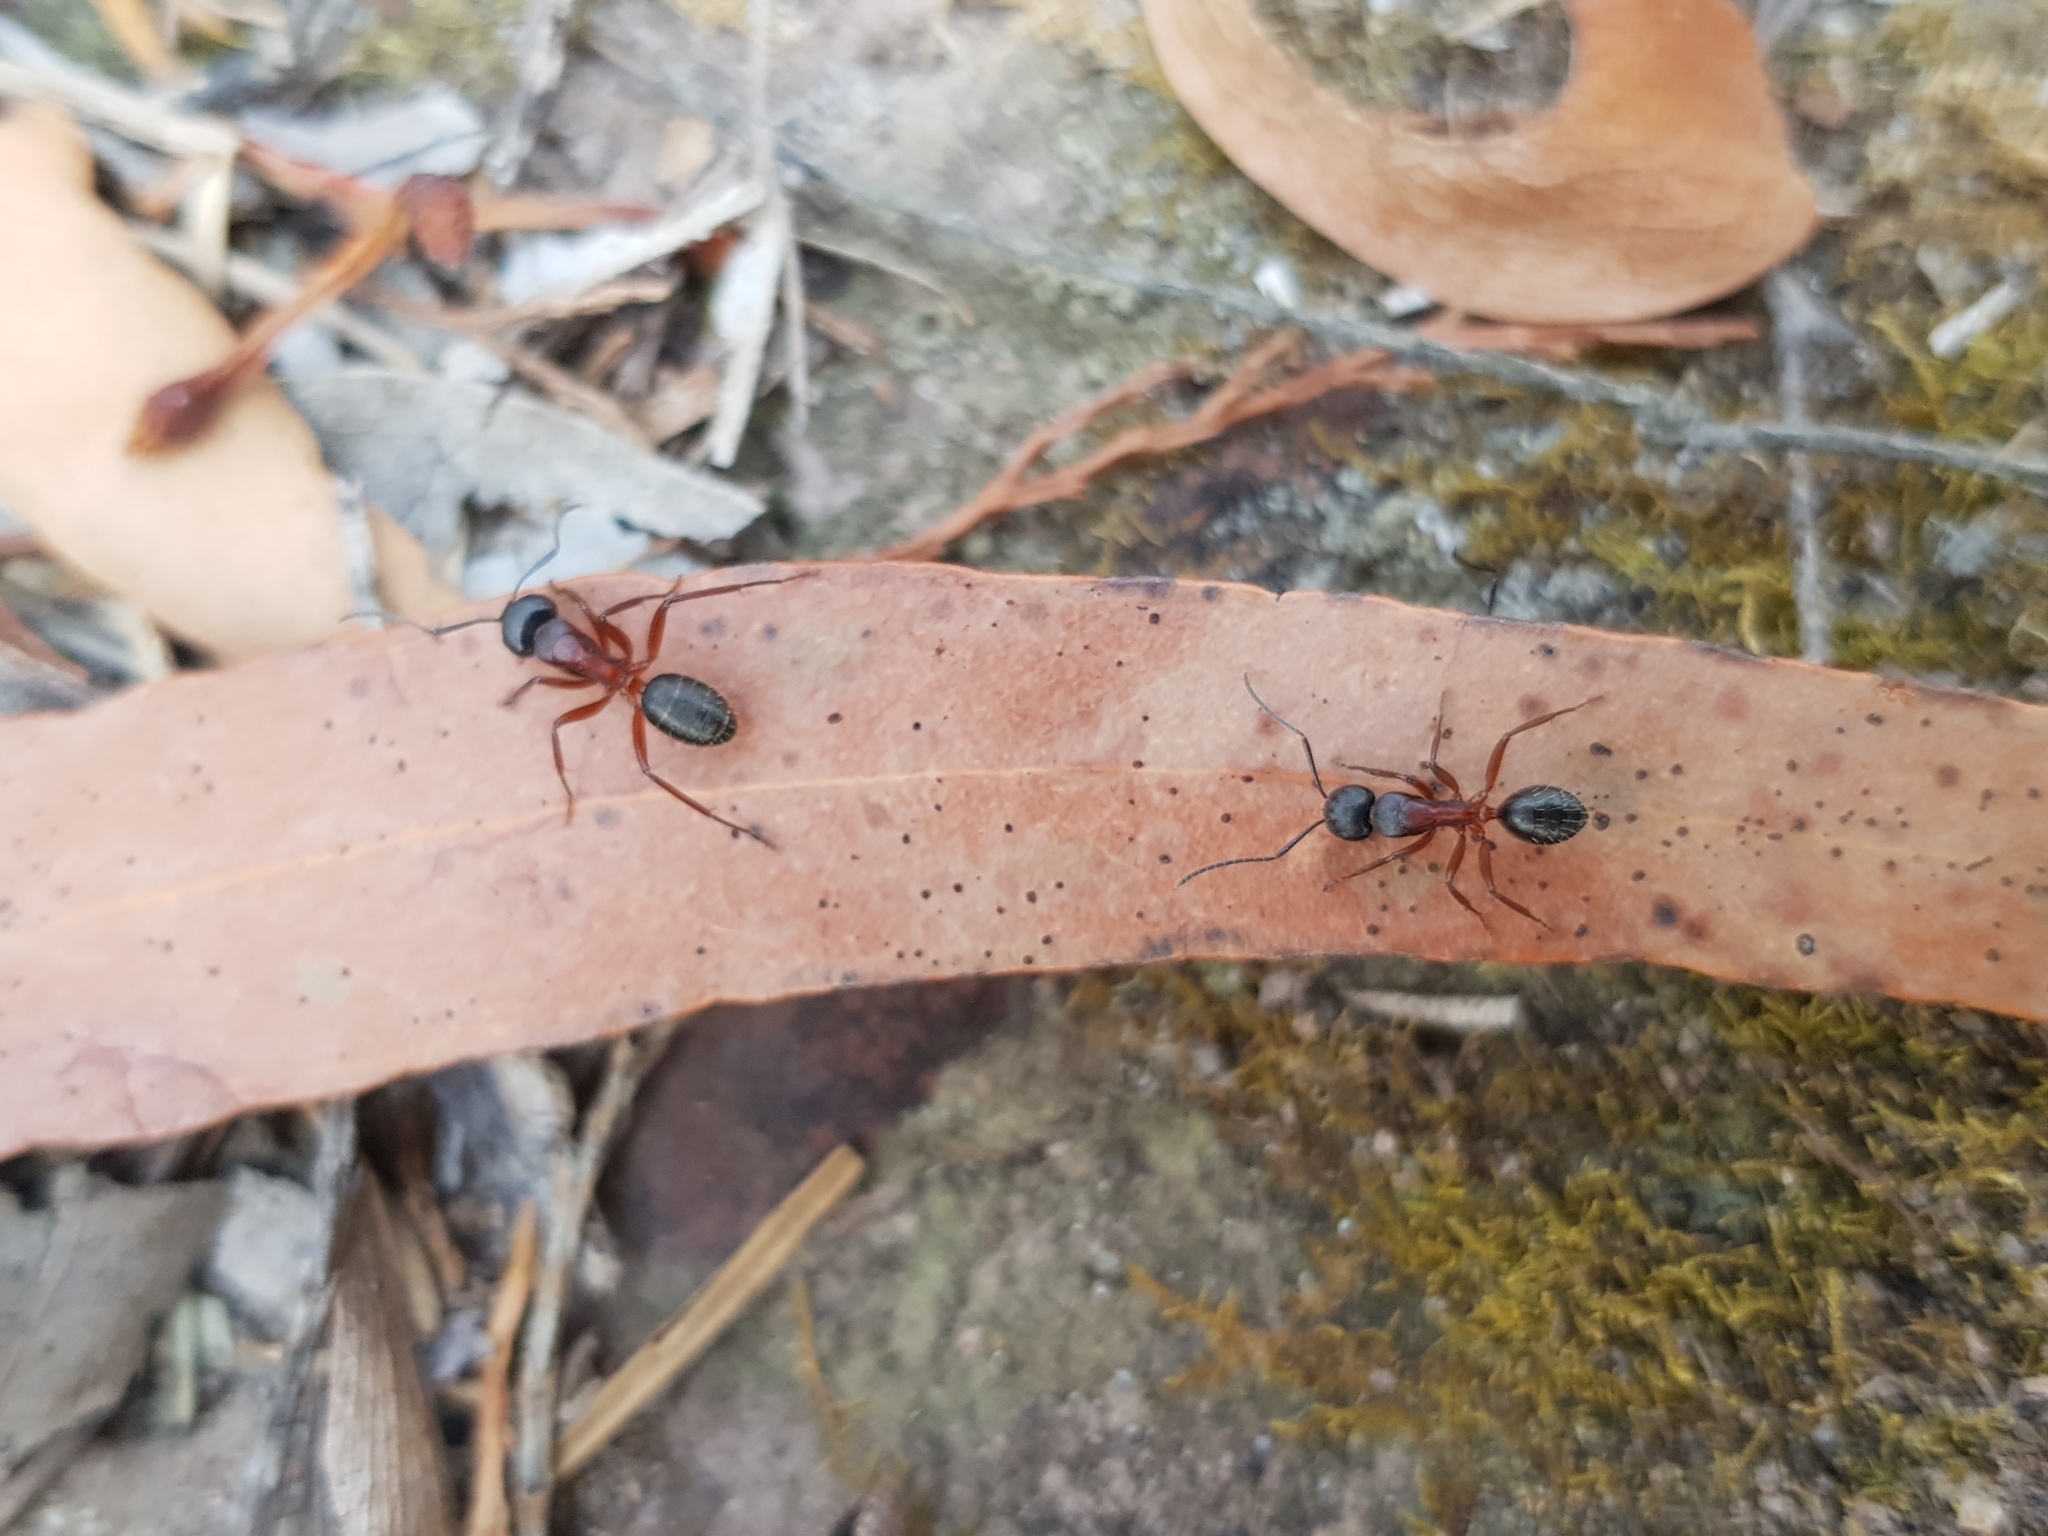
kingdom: Animalia
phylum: Arthropoda
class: Insecta
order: Hymenoptera
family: Formicidae
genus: Camponotus
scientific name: Camponotus innexus
